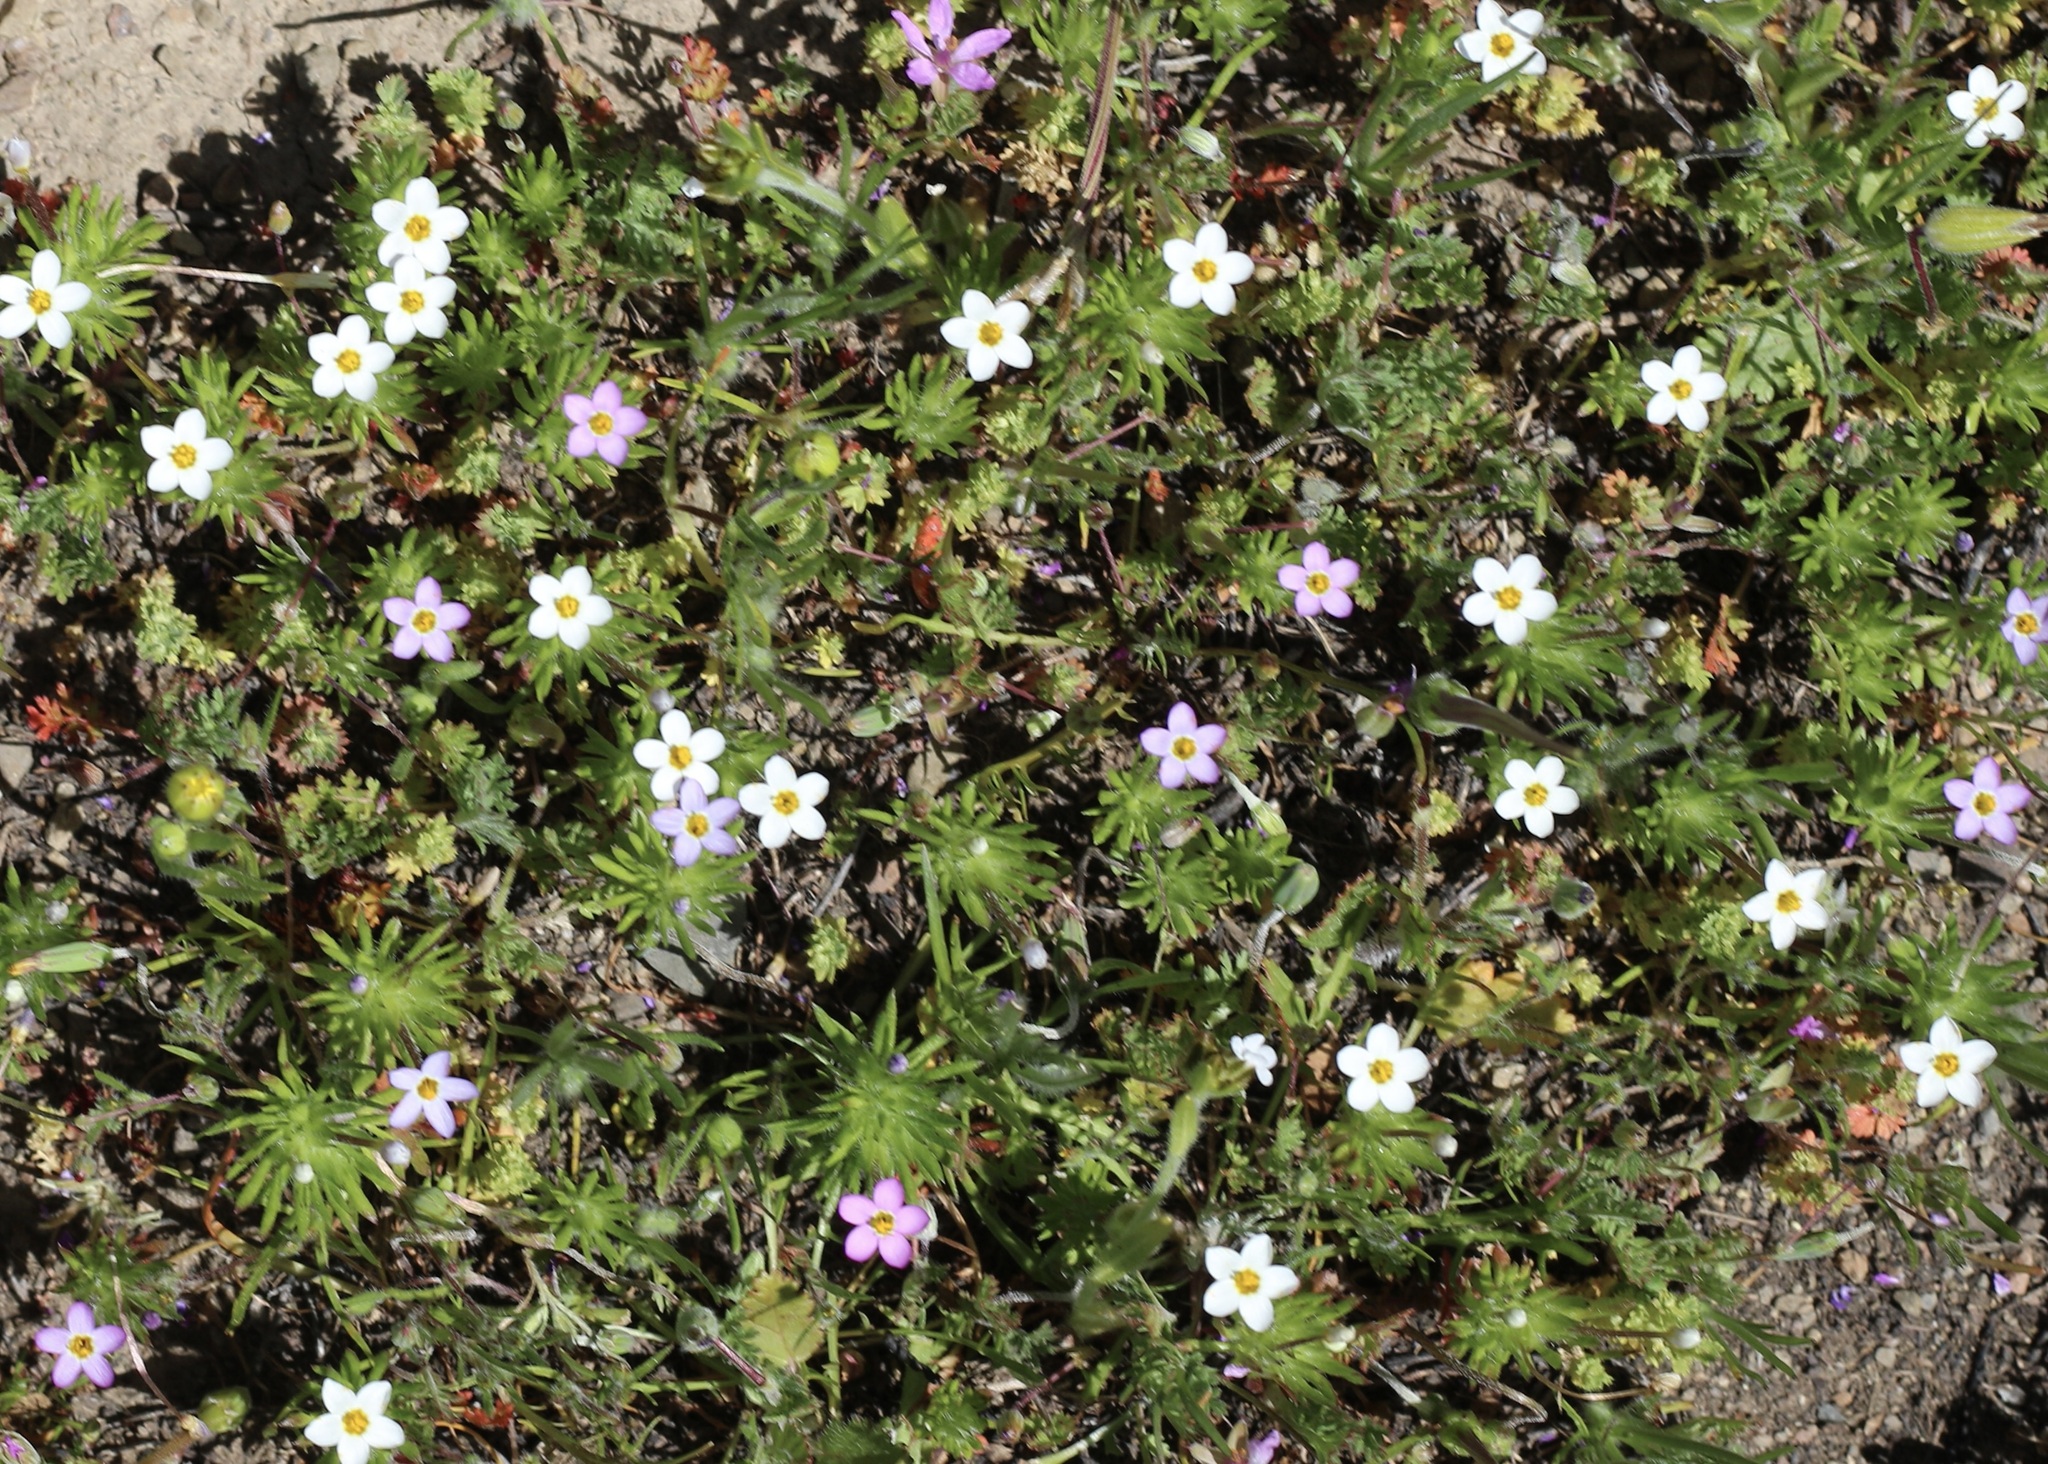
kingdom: Plantae
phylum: Tracheophyta
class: Magnoliopsida
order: Ericales
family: Polemoniaceae
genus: Leptosiphon
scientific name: Leptosiphon bicolor
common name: True babystars
